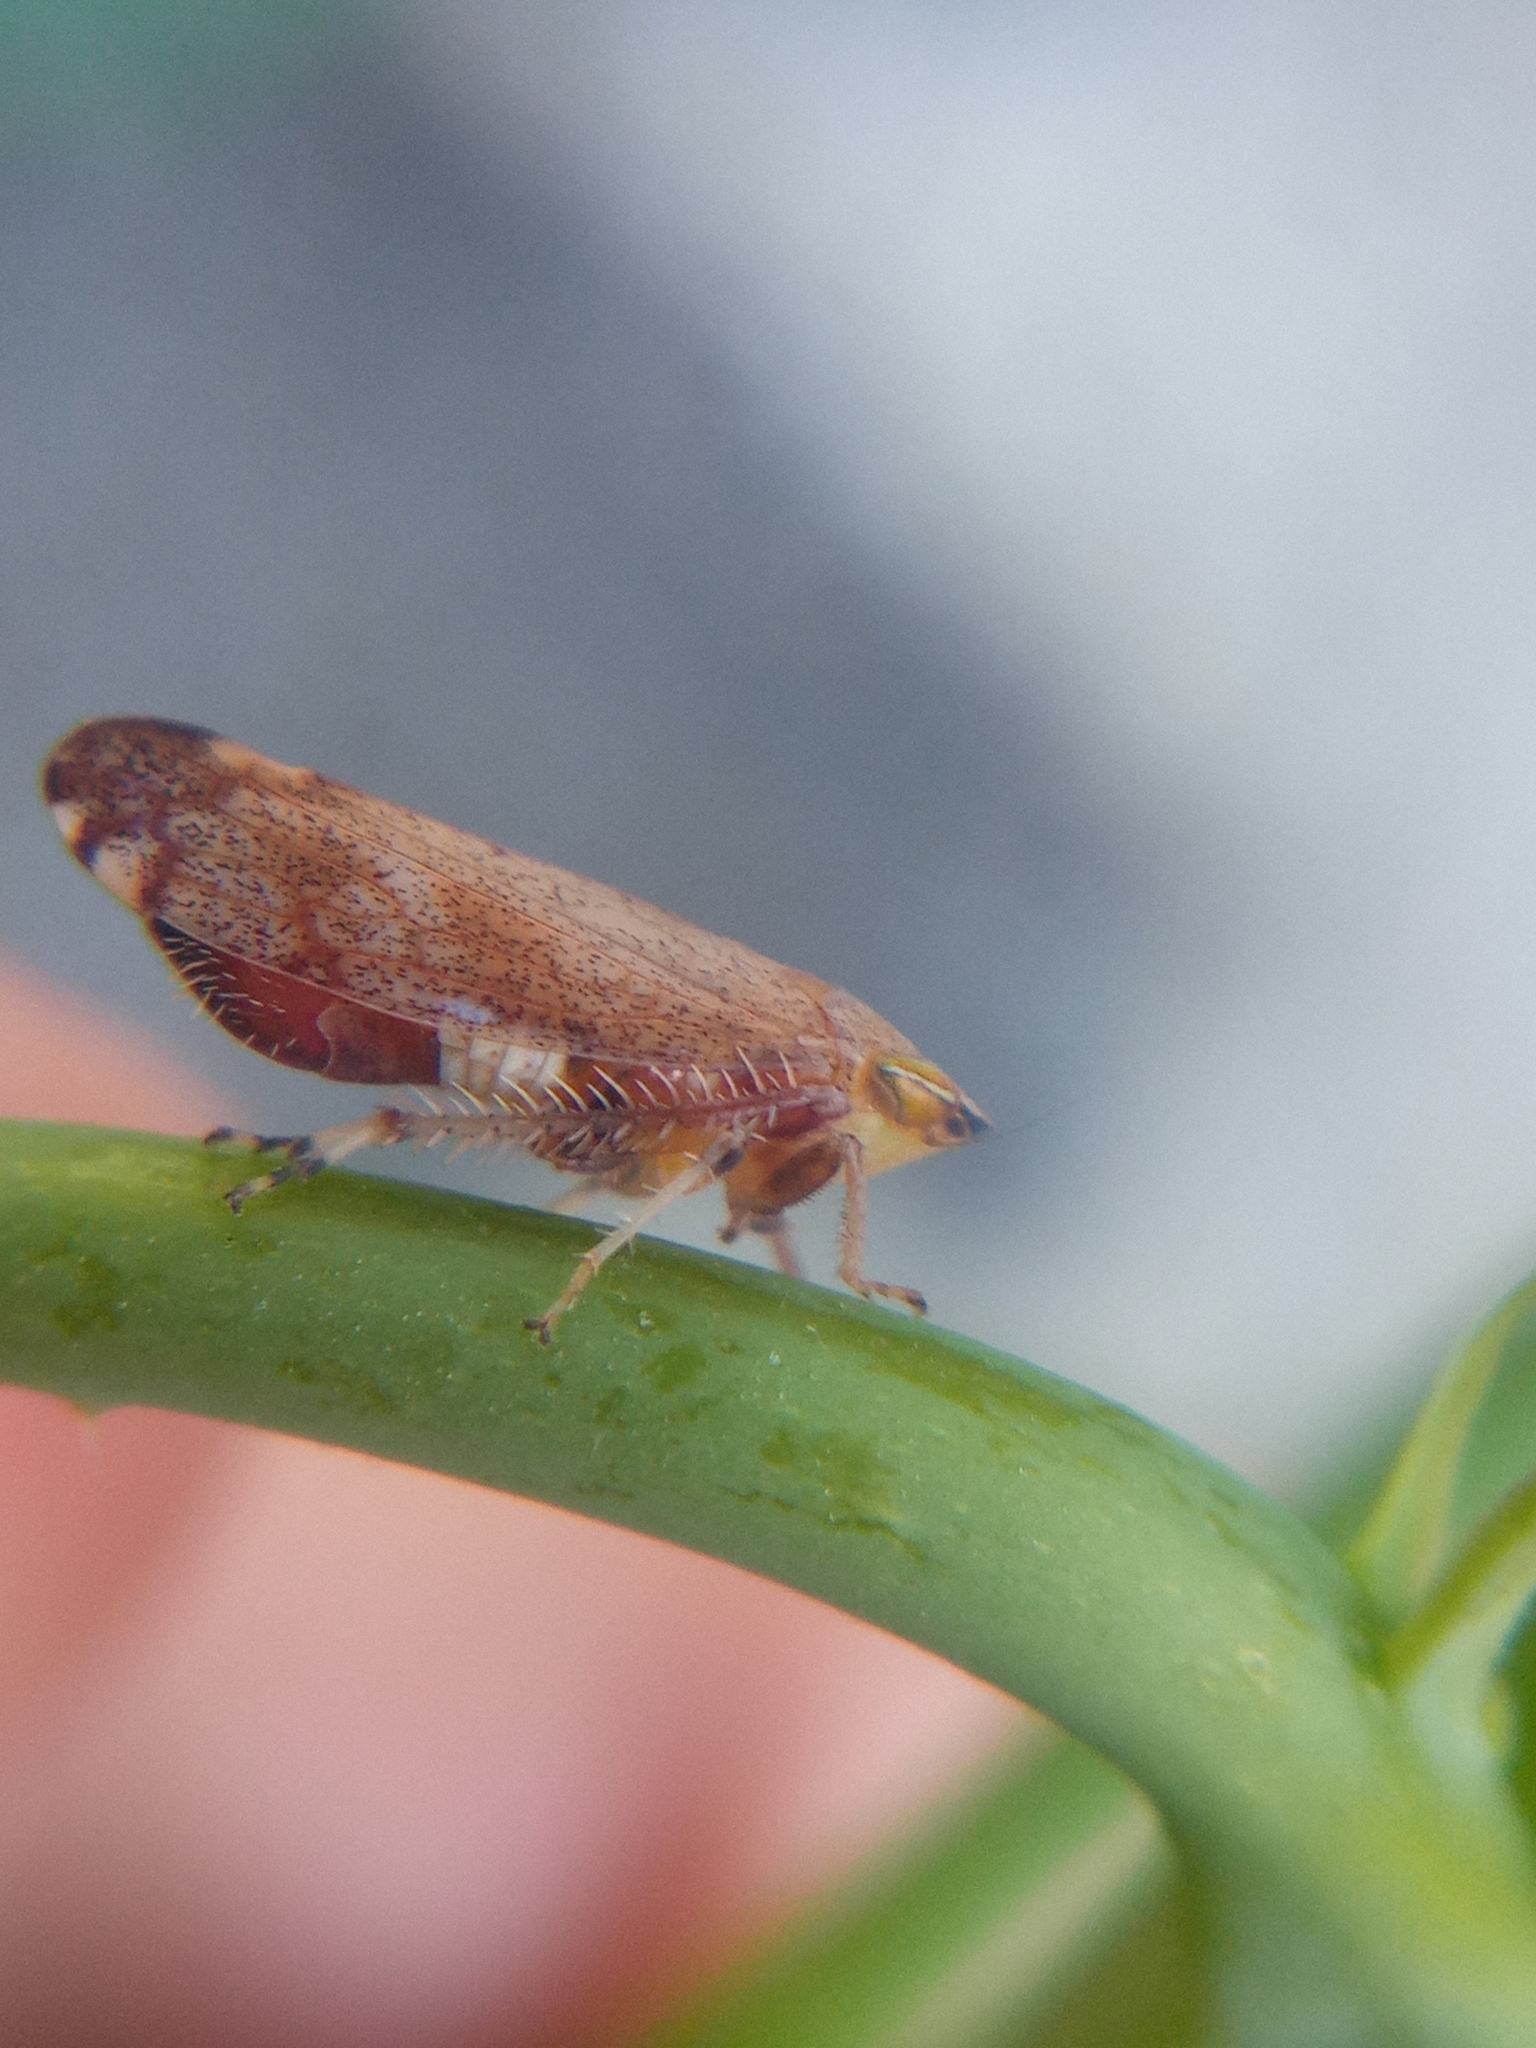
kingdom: Animalia
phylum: Arthropoda
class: Insecta
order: Hemiptera
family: Cicadellidae
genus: Fieberiella
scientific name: Fieberiella florii
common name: Flor’s leafhopper
